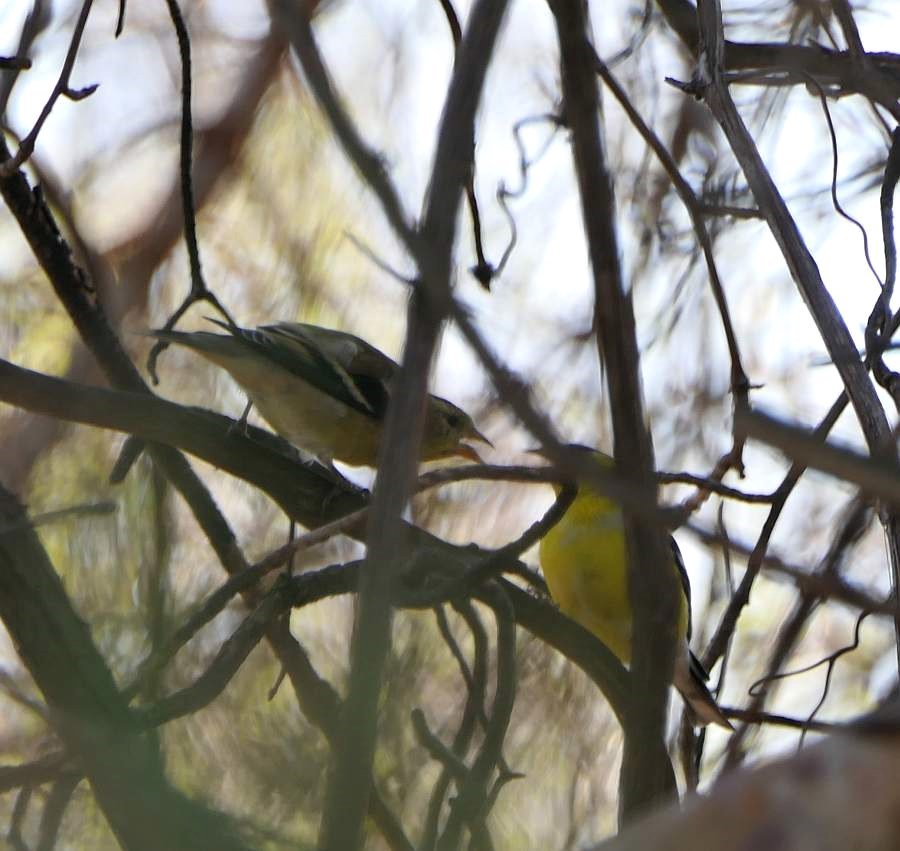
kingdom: Animalia
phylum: Chordata
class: Aves
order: Passeriformes
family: Fringillidae
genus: Spinus
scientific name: Spinus tristis
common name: American goldfinch
